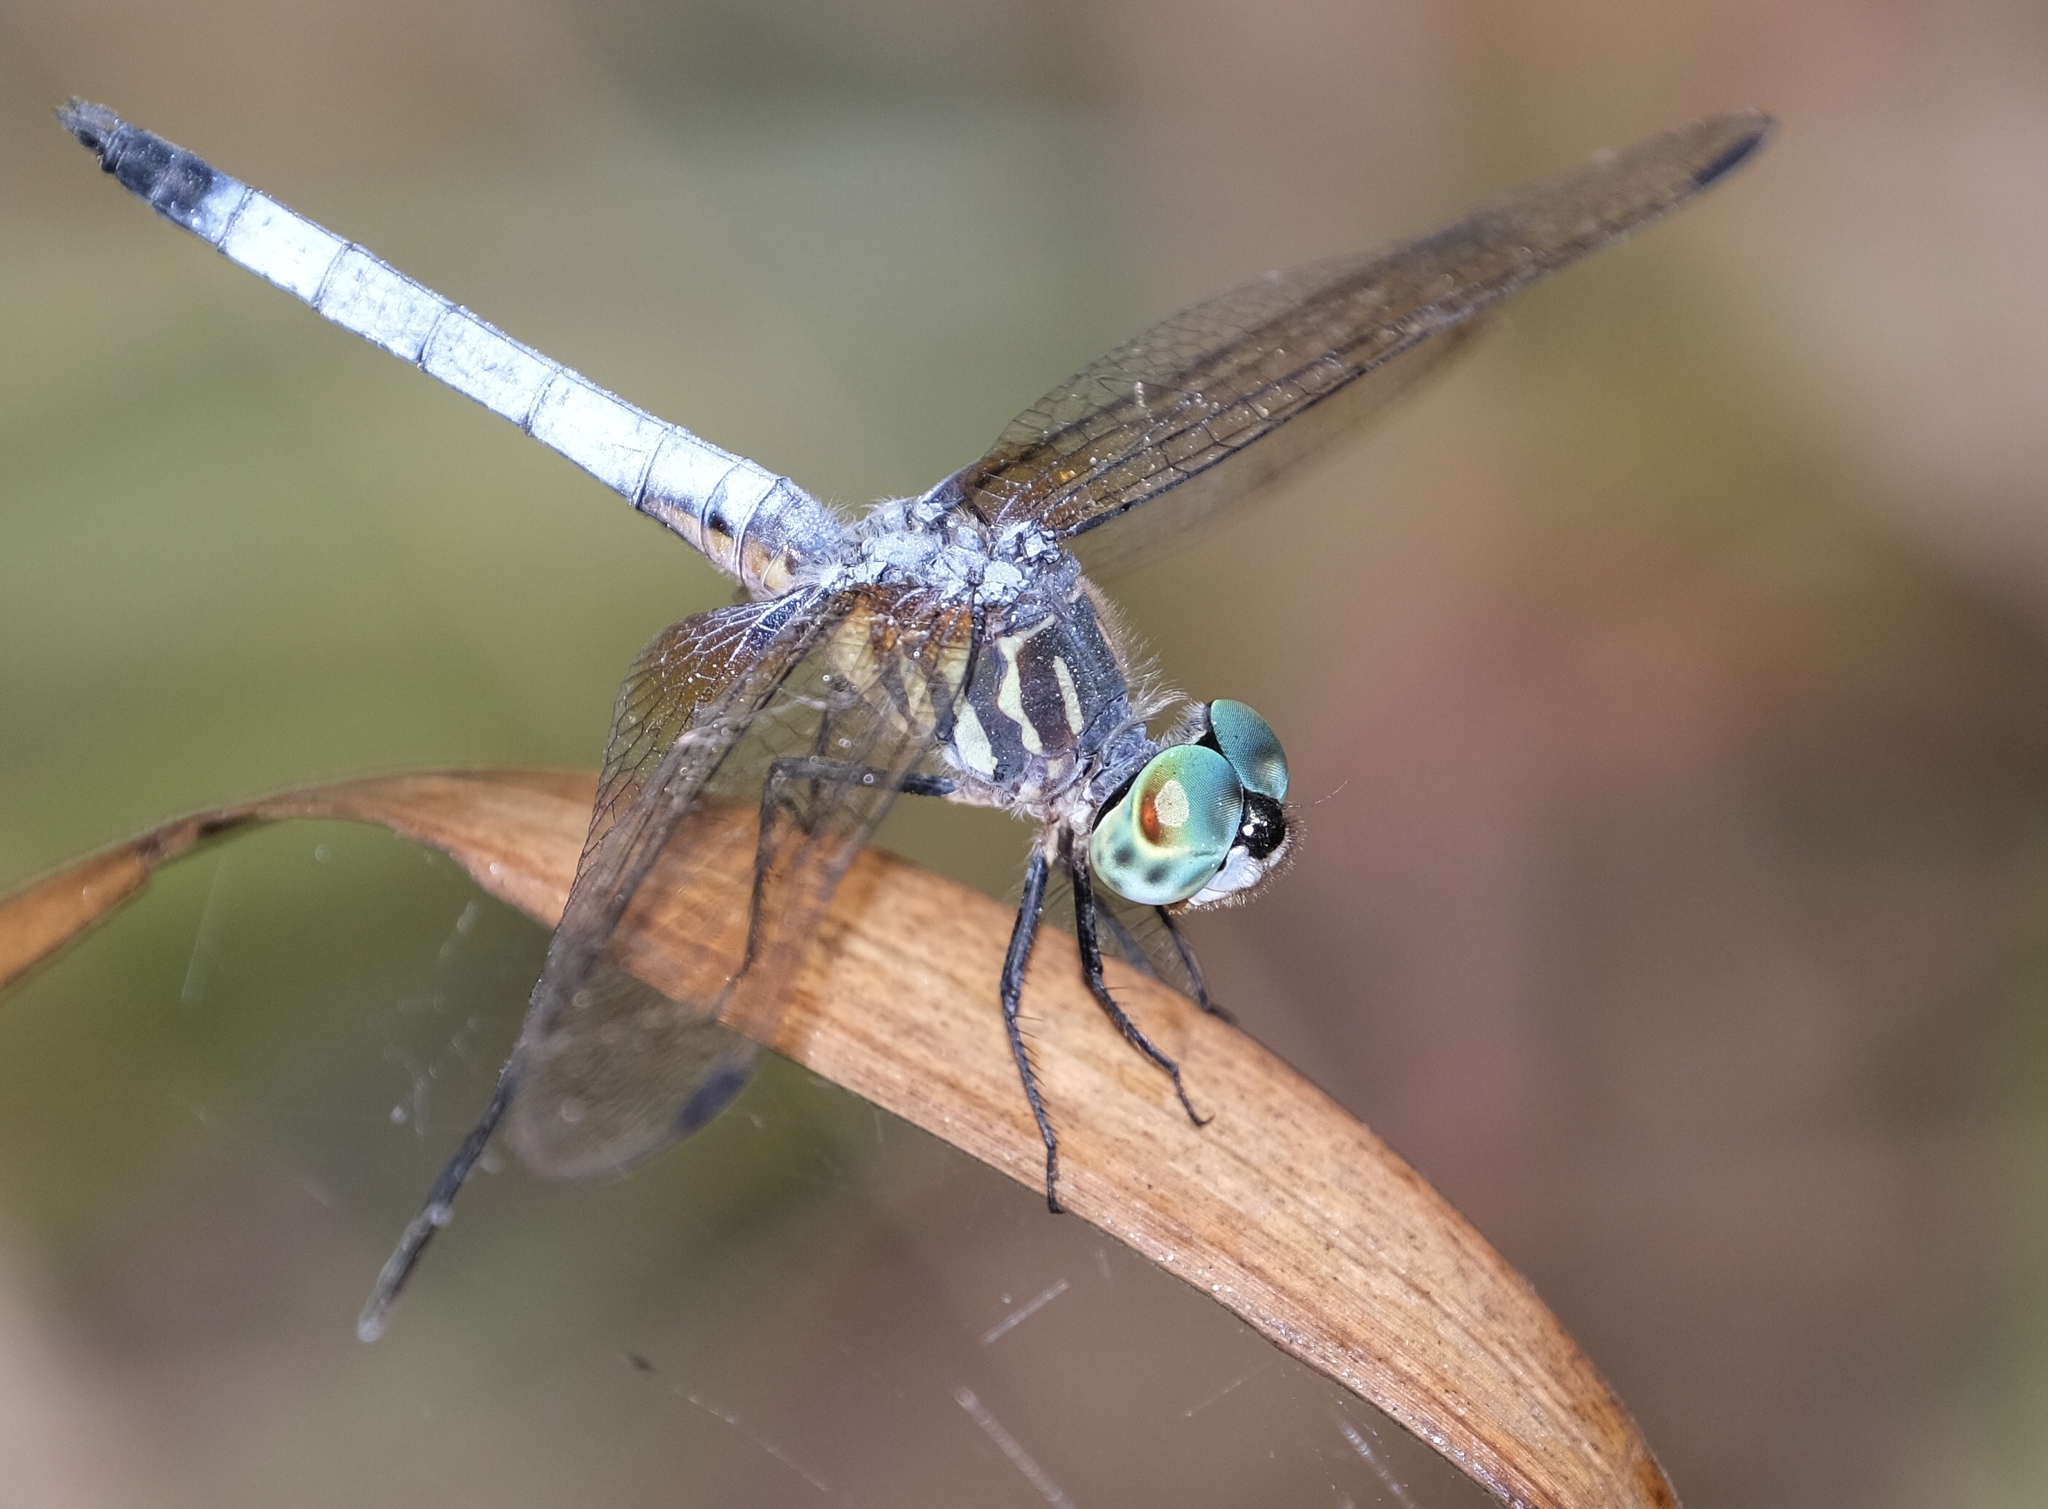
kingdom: Animalia
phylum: Arthropoda
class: Insecta
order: Odonata
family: Libellulidae
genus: Pachydiplax
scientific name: Pachydiplax longipennis
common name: Blue dasher
